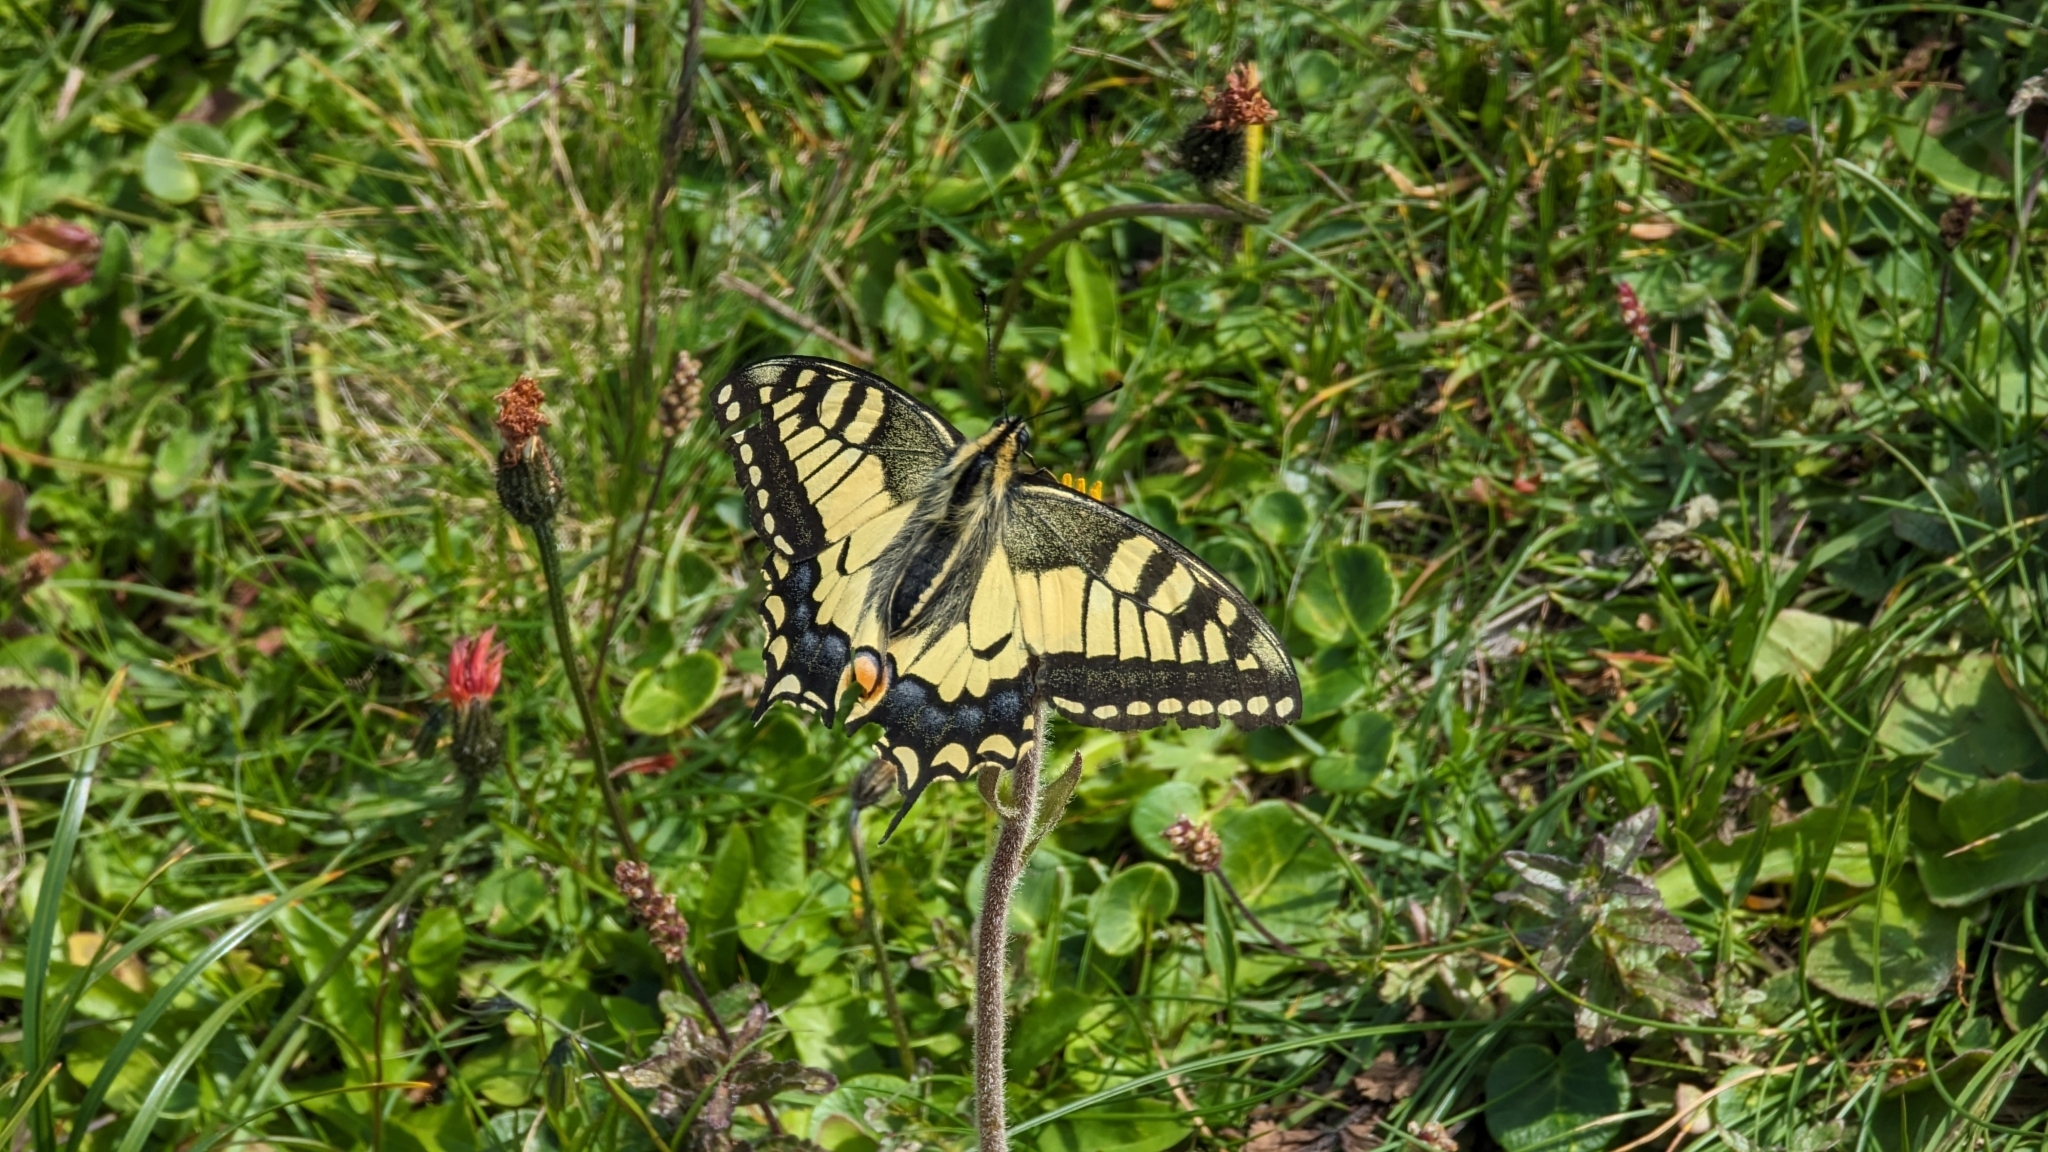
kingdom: Animalia
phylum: Arthropoda
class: Insecta
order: Lepidoptera
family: Papilionidae
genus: Papilio
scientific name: Papilio machaon
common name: Swallowtail
